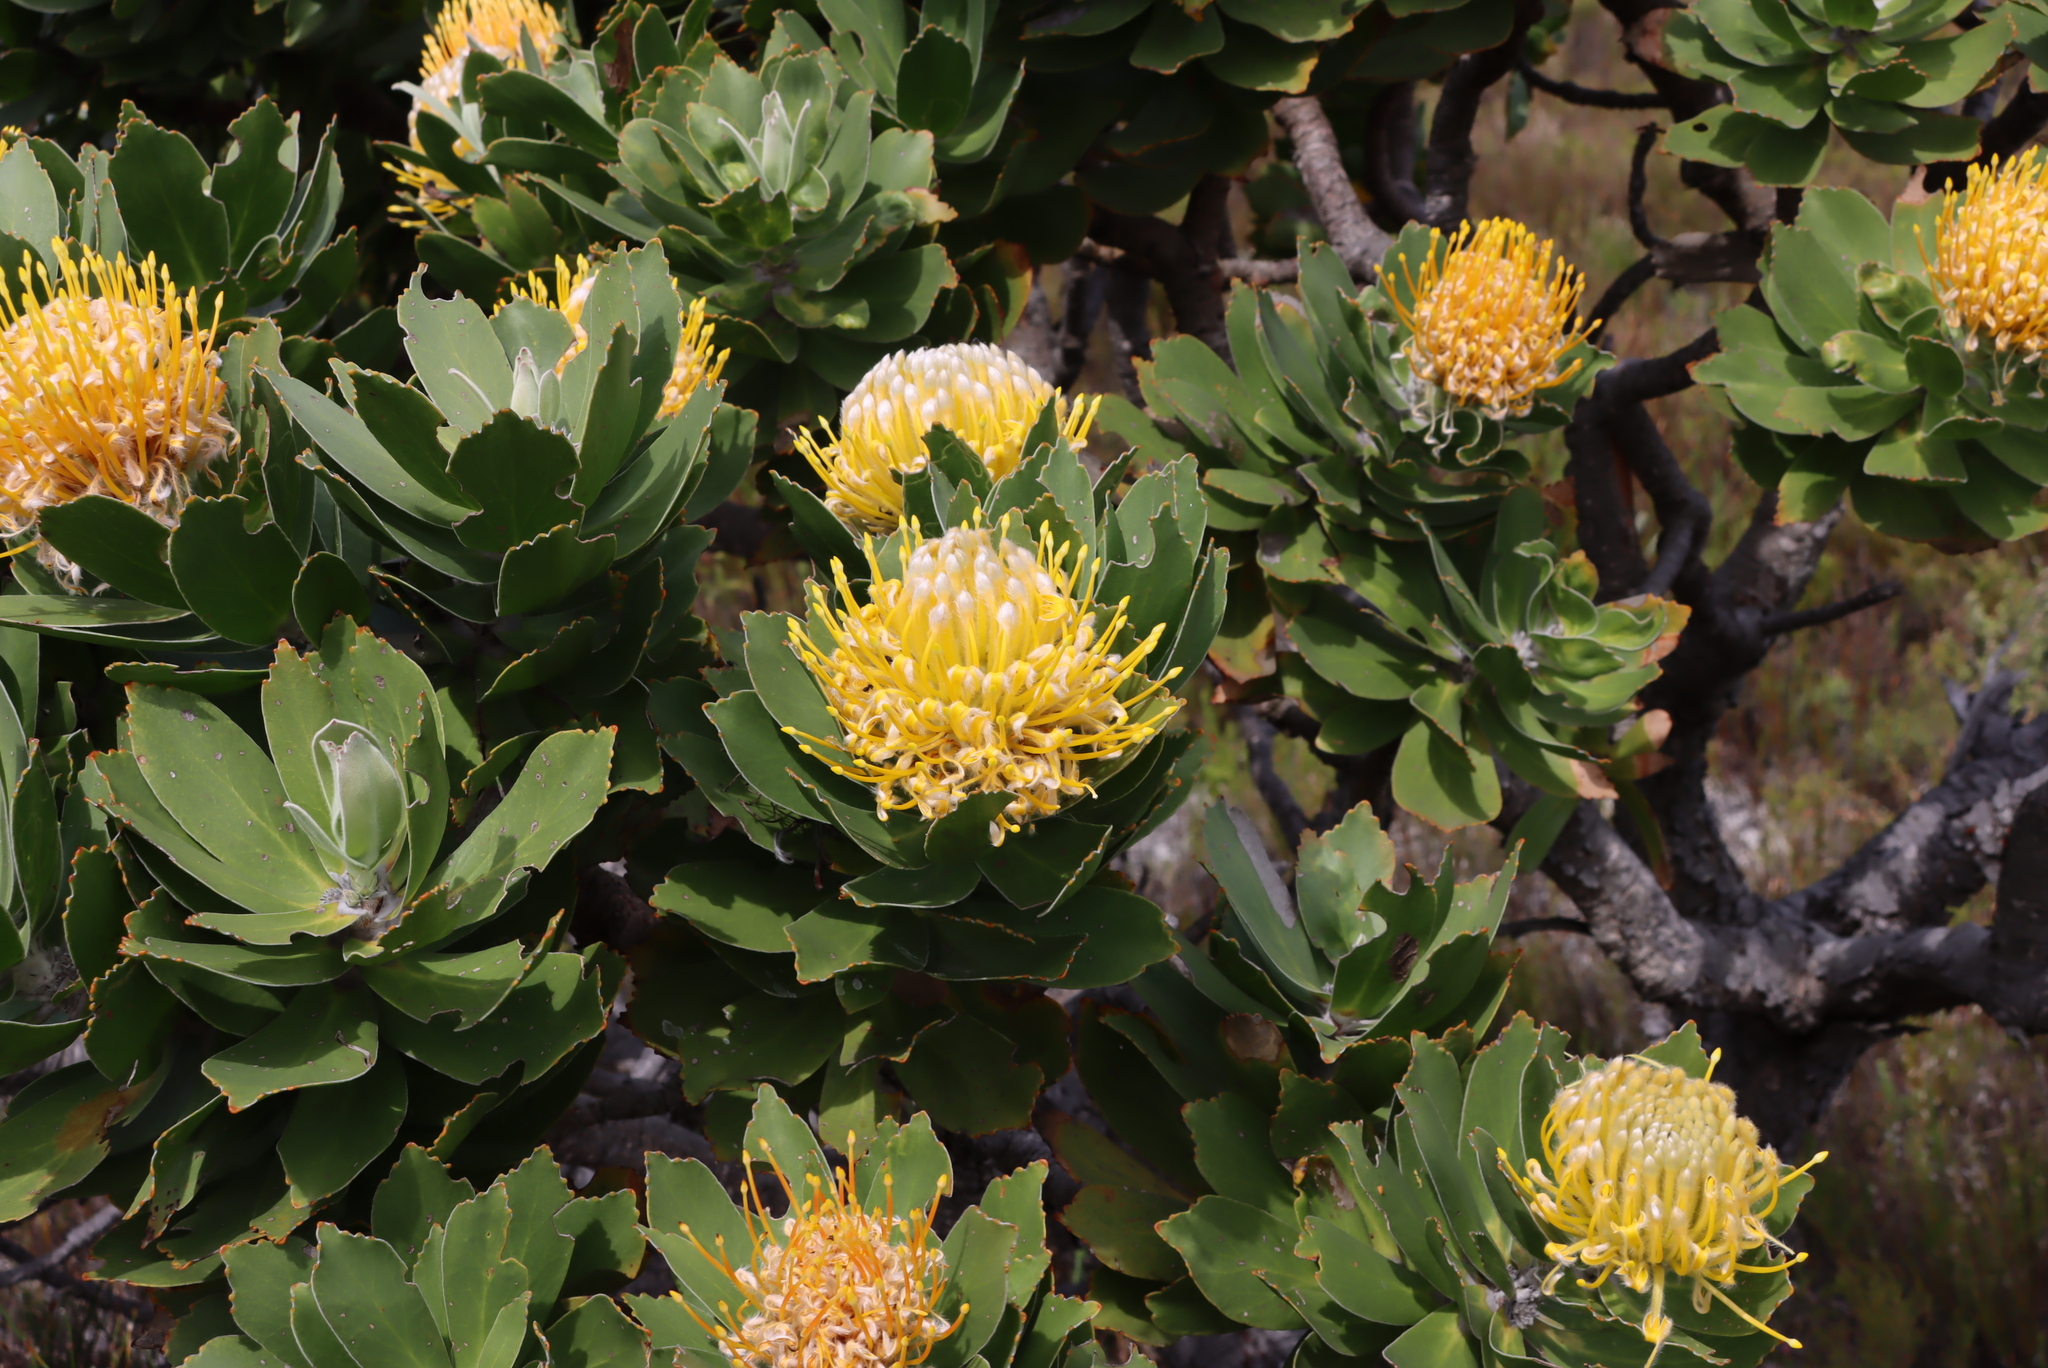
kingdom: Plantae
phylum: Tracheophyta
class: Magnoliopsida
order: Proteales
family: Proteaceae
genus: Leucospermum
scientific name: Leucospermum conocarpodendron
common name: Tree pincushion
